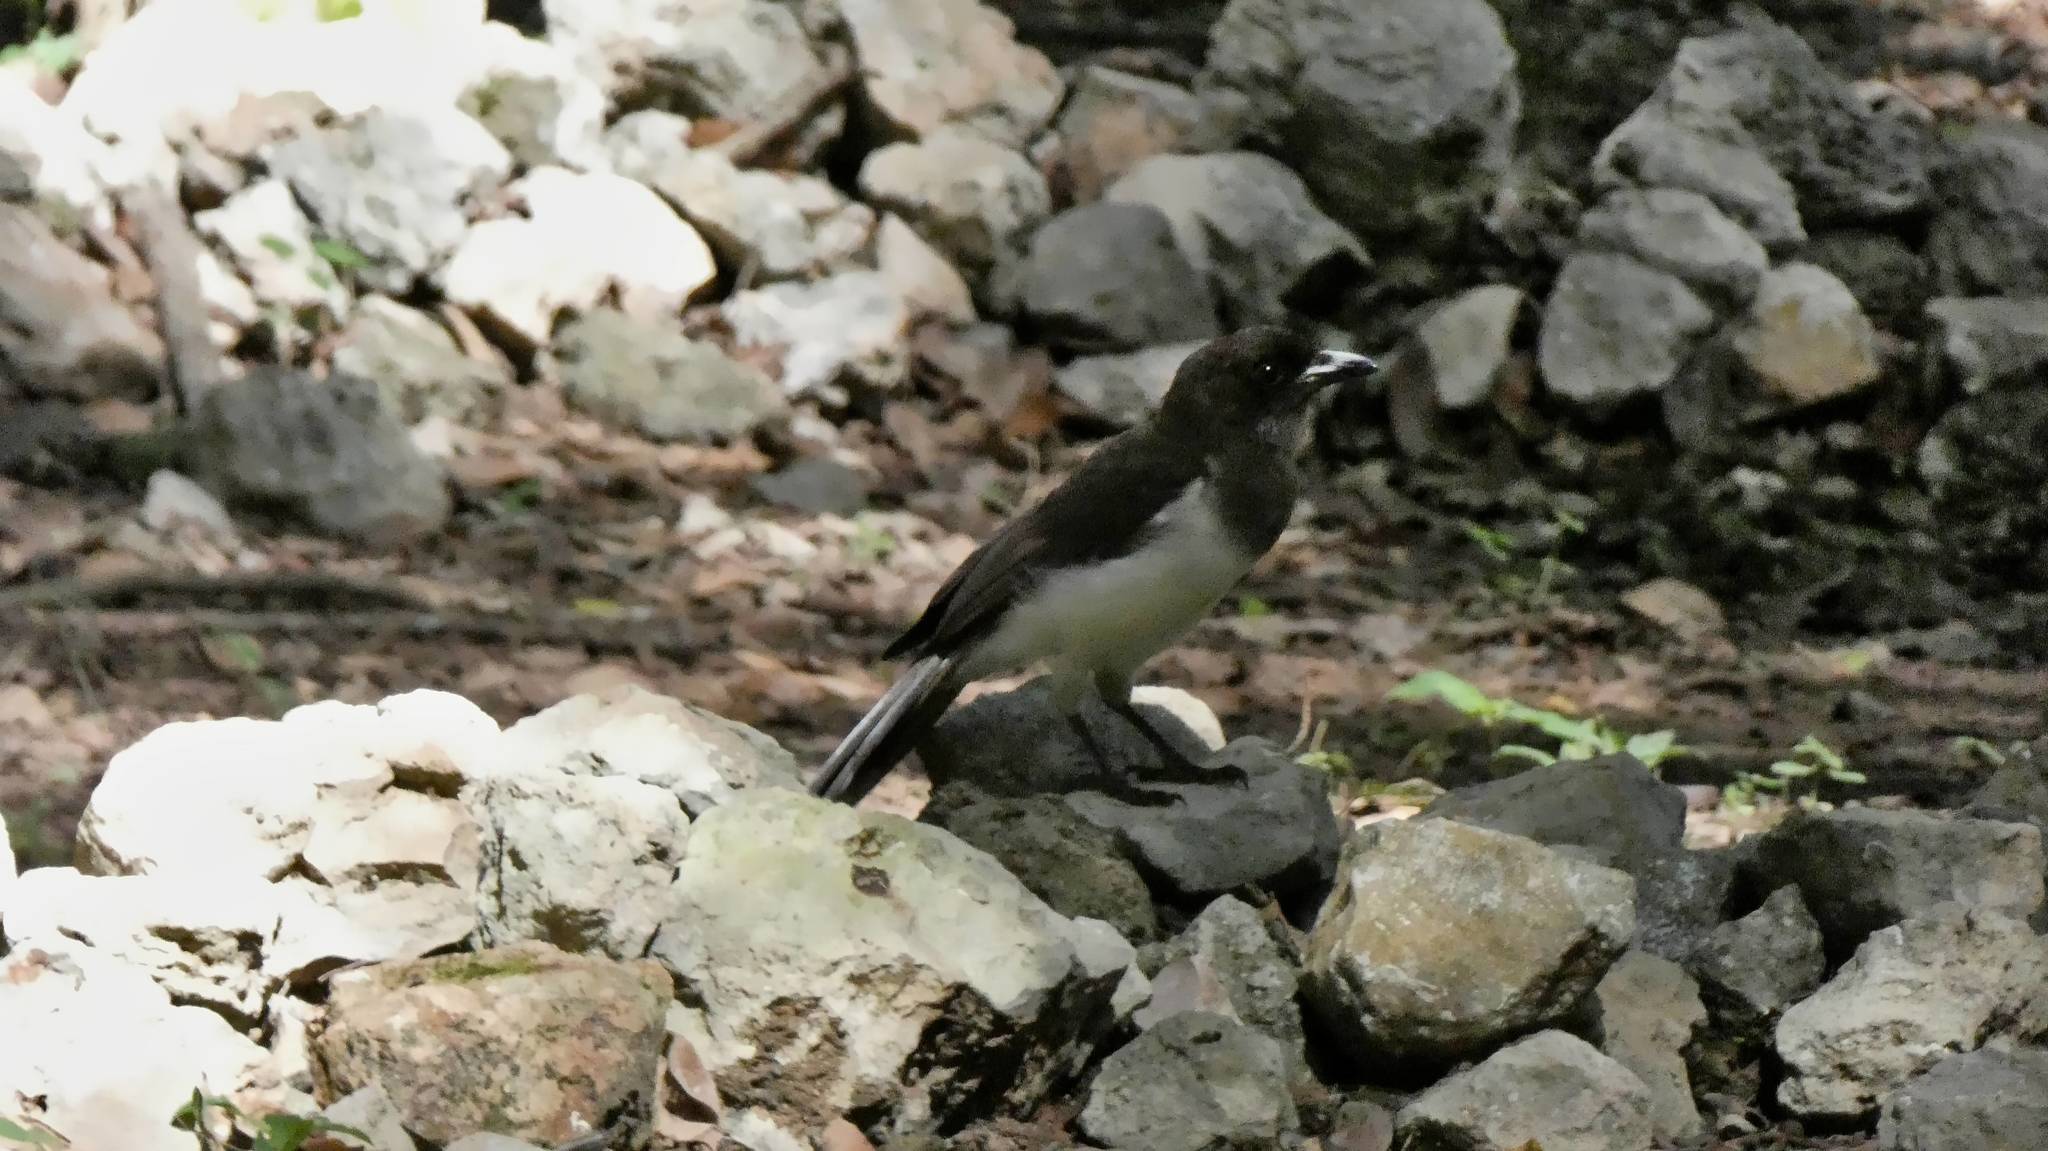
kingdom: Animalia
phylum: Chordata
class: Aves
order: Passeriformes
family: Corvidae
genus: Psilorhinus
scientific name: Psilorhinus morio
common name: Brown jay
